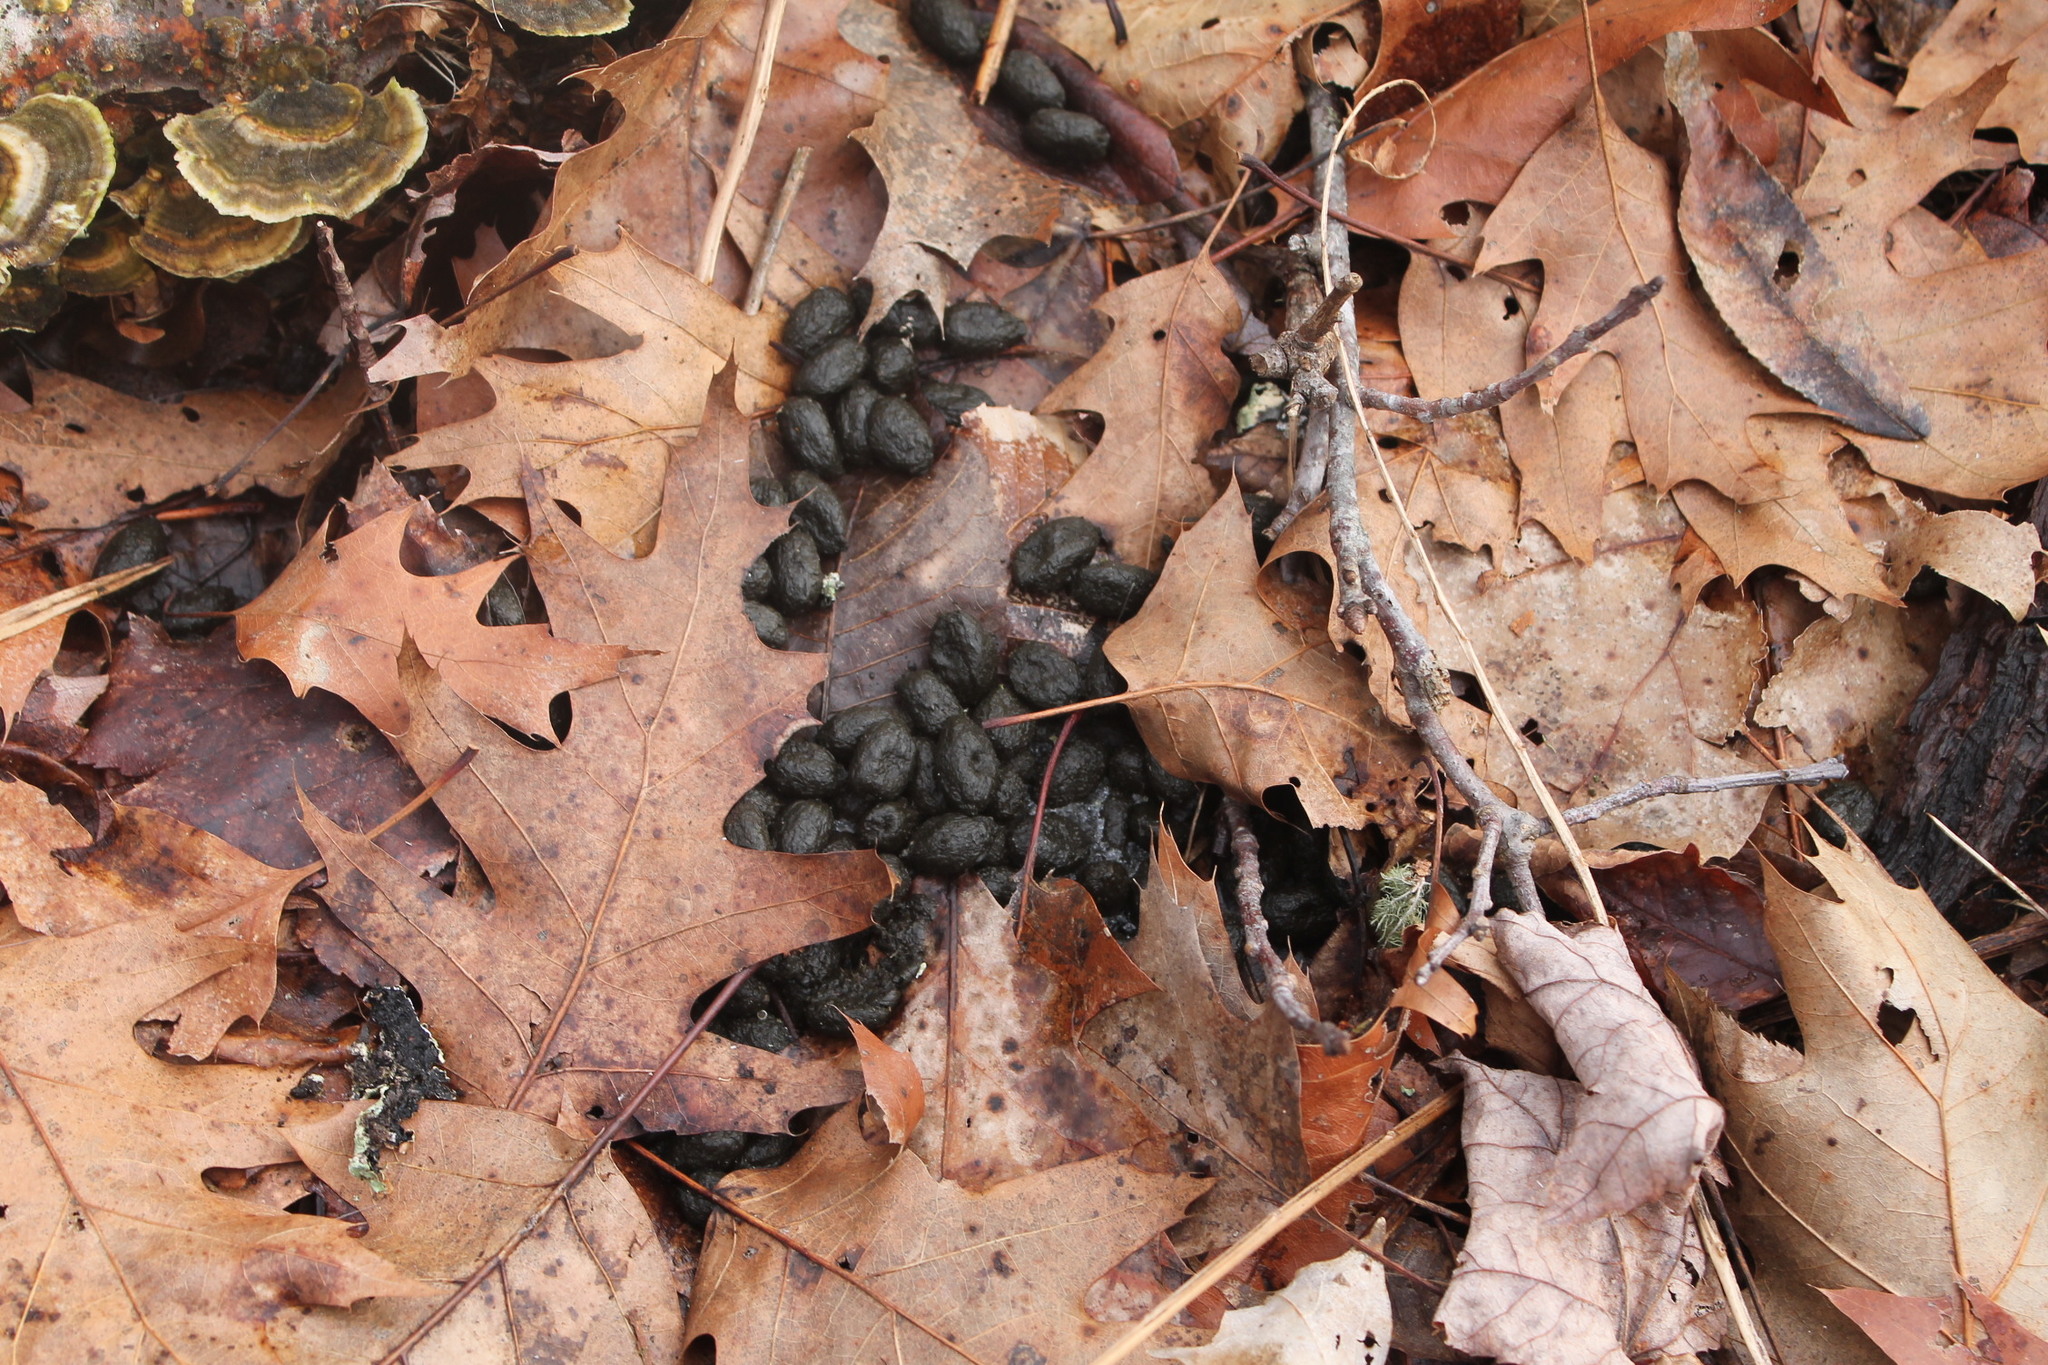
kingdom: Animalia
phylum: Chordata
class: Mammalia
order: Artiodactyla
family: Cervidae
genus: Odocoileus
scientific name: Odocoileus virginianus
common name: White-tailed deer
